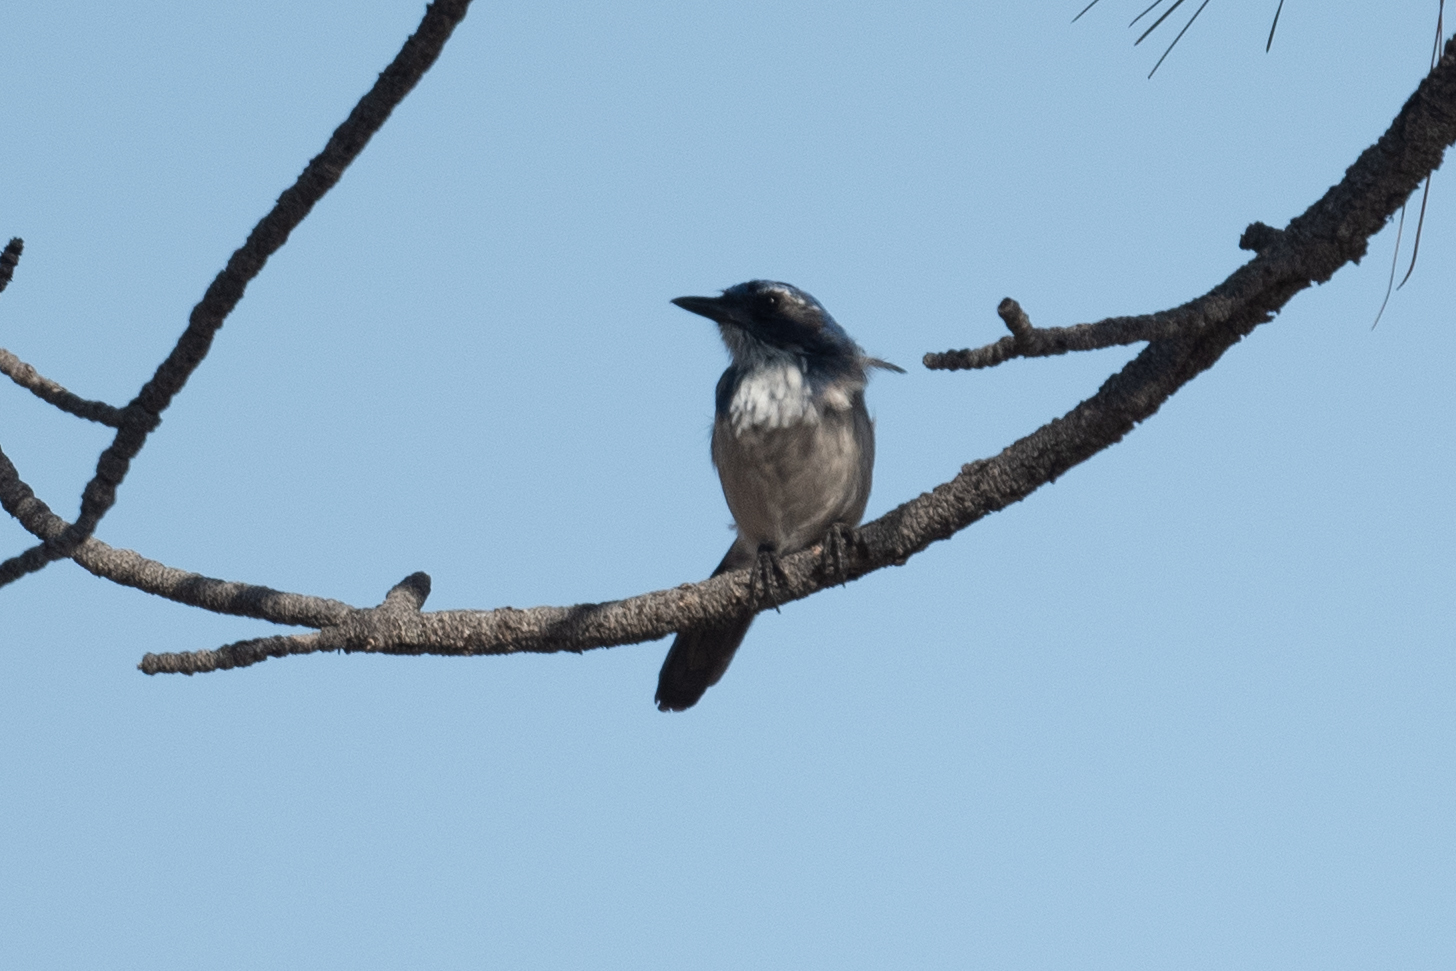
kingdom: Animalia
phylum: Chordata
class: Aves
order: Passeriformes
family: Corvidae
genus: Aphelocoma
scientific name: Aphelocoma californica
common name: California scrub-jay
